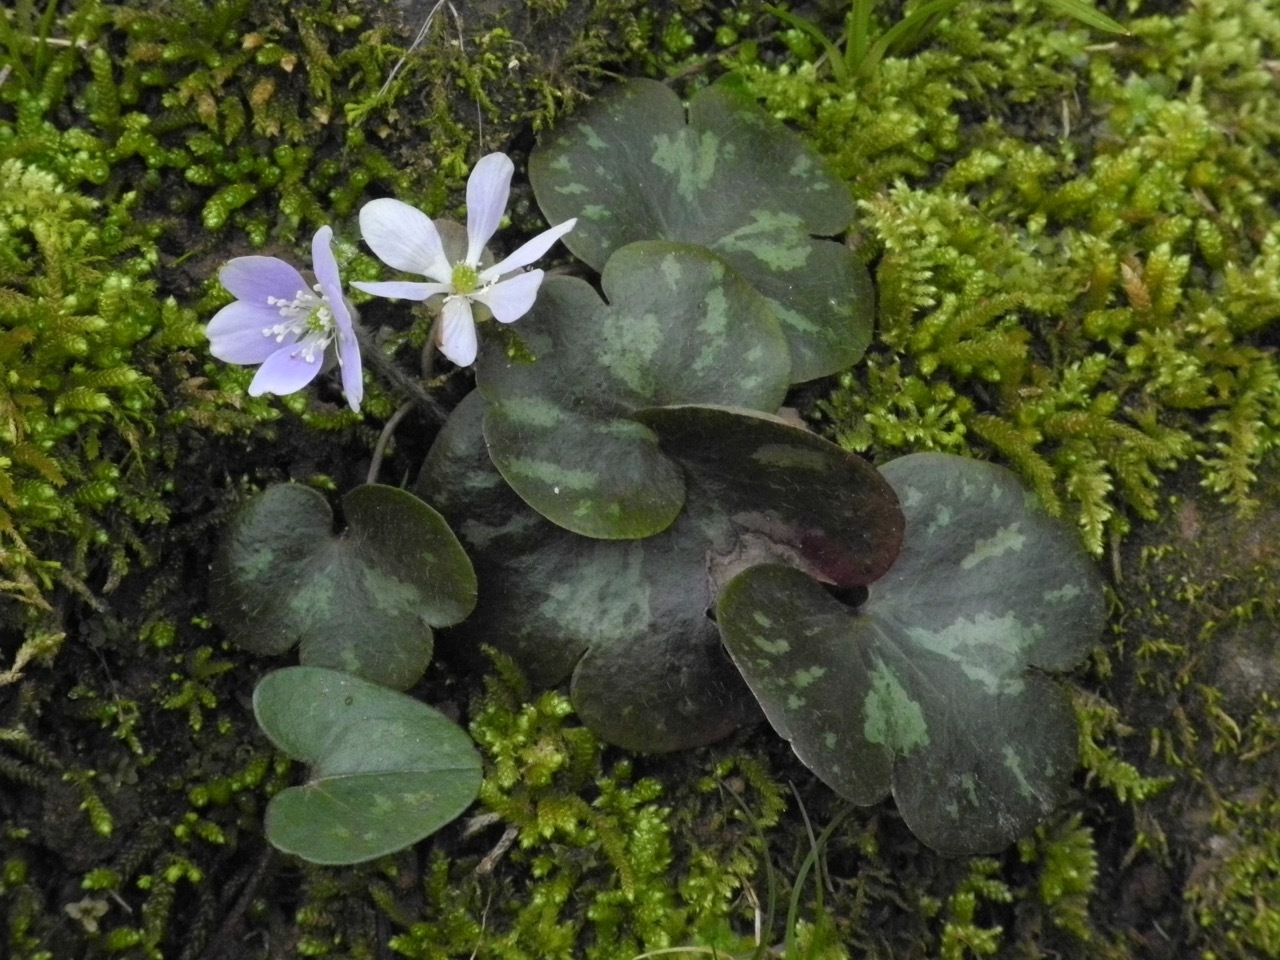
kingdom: Plantae
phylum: Tracheophyta
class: Magnoliopsida
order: Ranunculales
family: Ranunculaceae
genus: Hepatica
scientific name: Hepatica americana
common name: American hepatica
